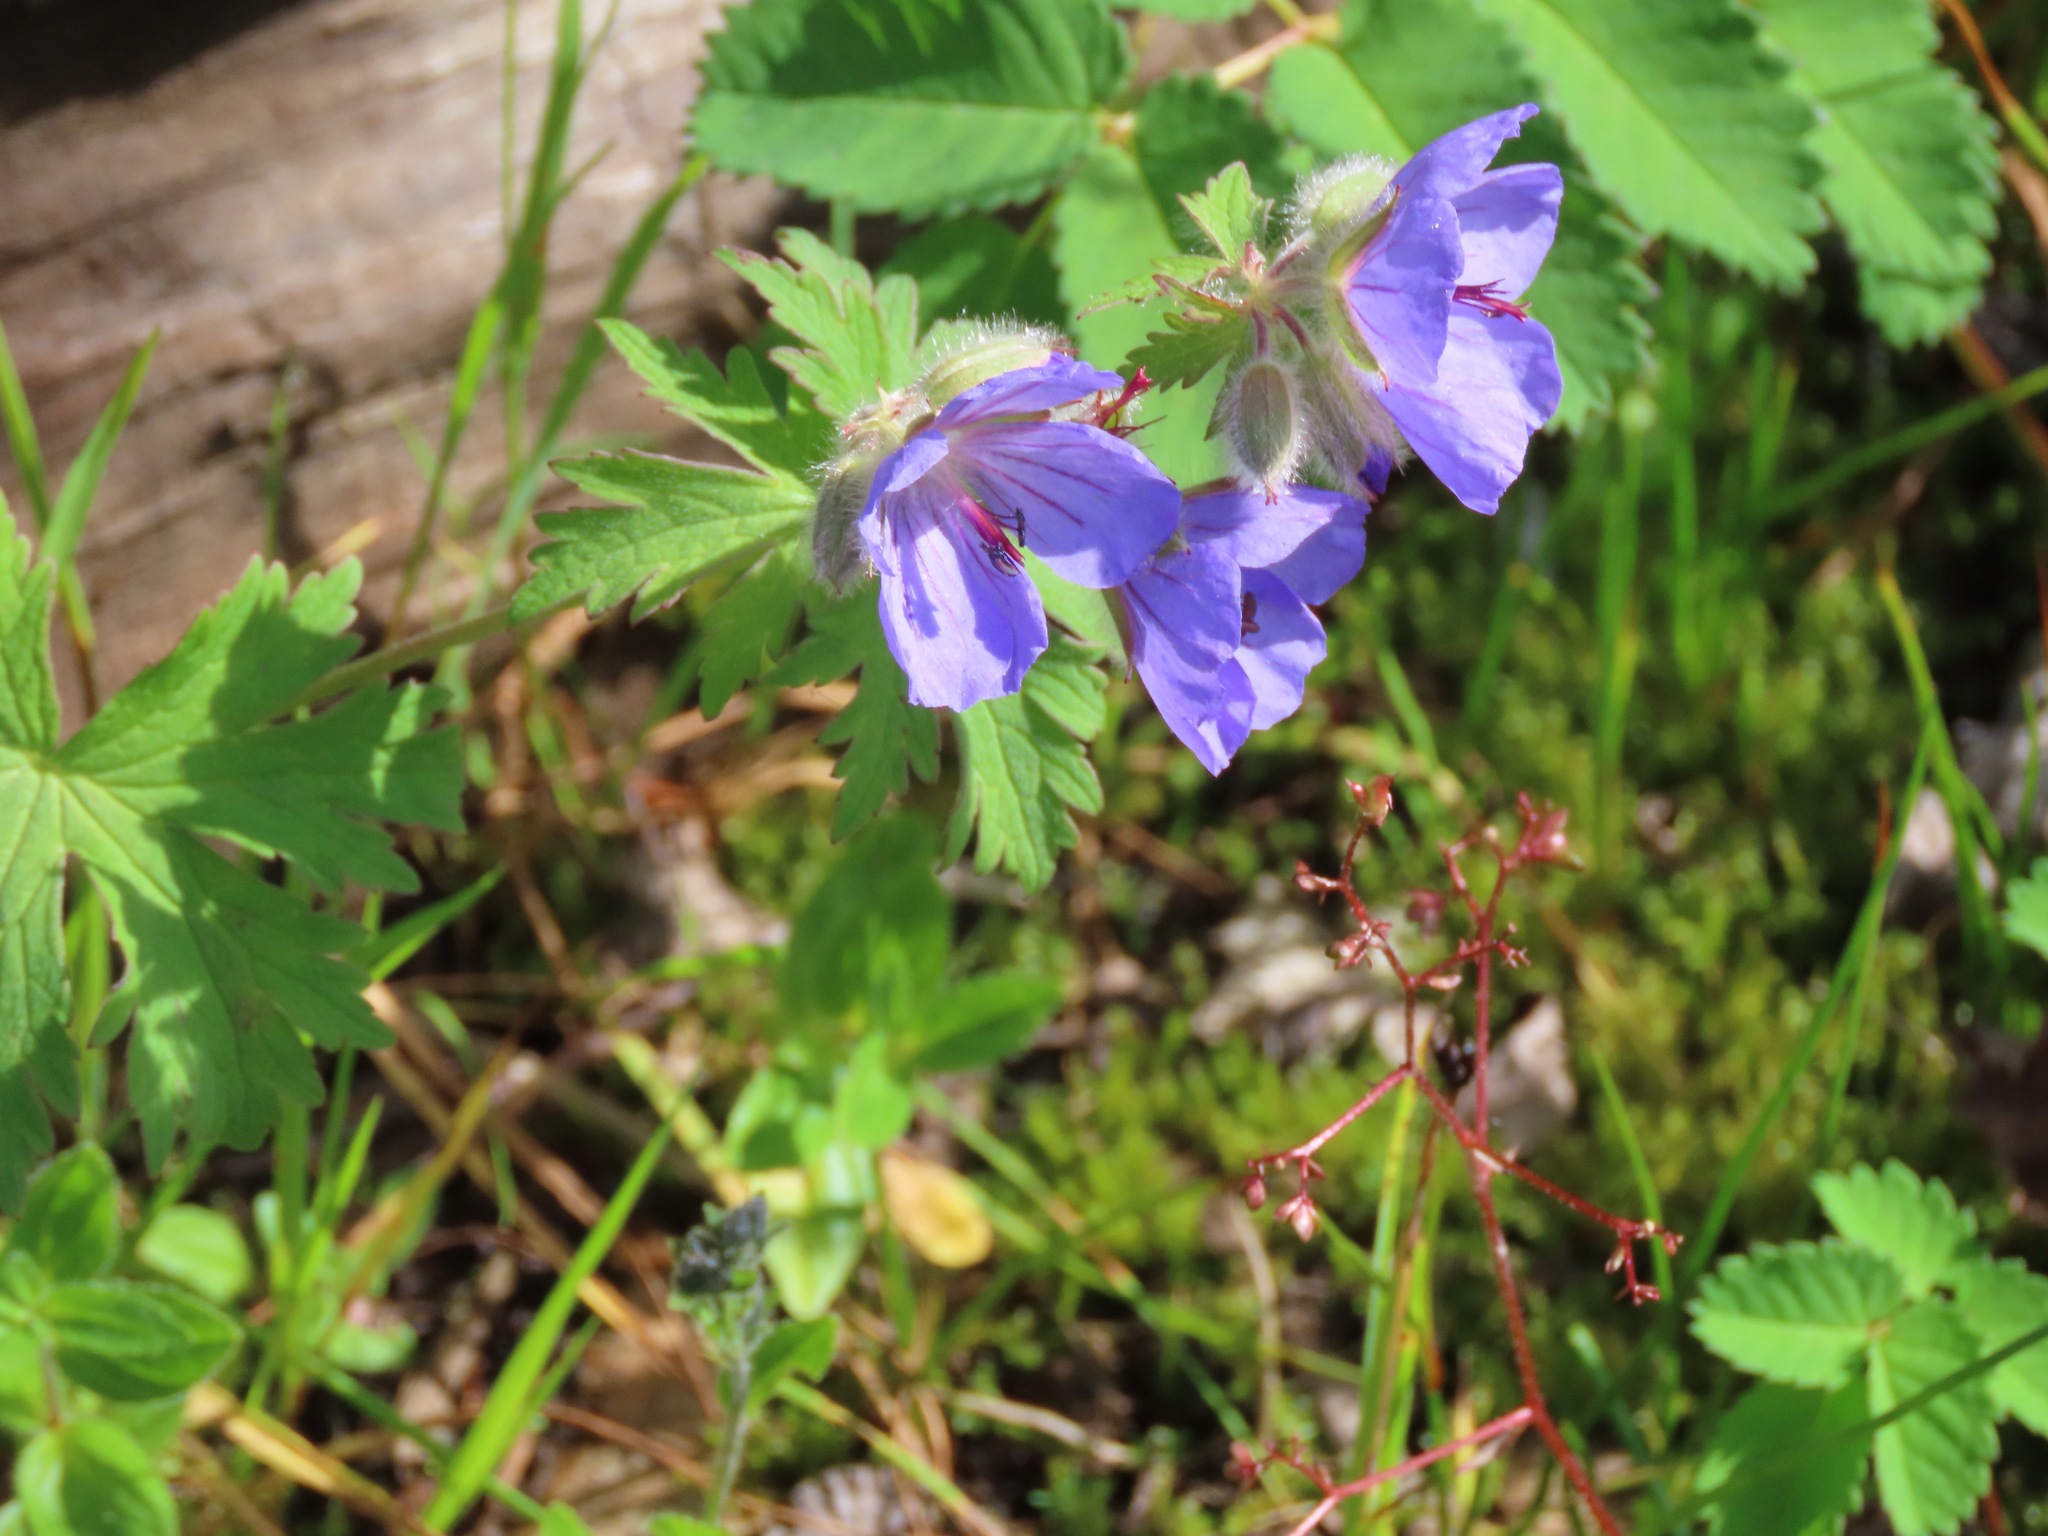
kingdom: Plantae
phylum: Tracheophyta
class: Magnoliopsida
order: Geraniales
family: Geraniaceae
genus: Geranium
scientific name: Geranium erianthum
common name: Northern crane's-bill
